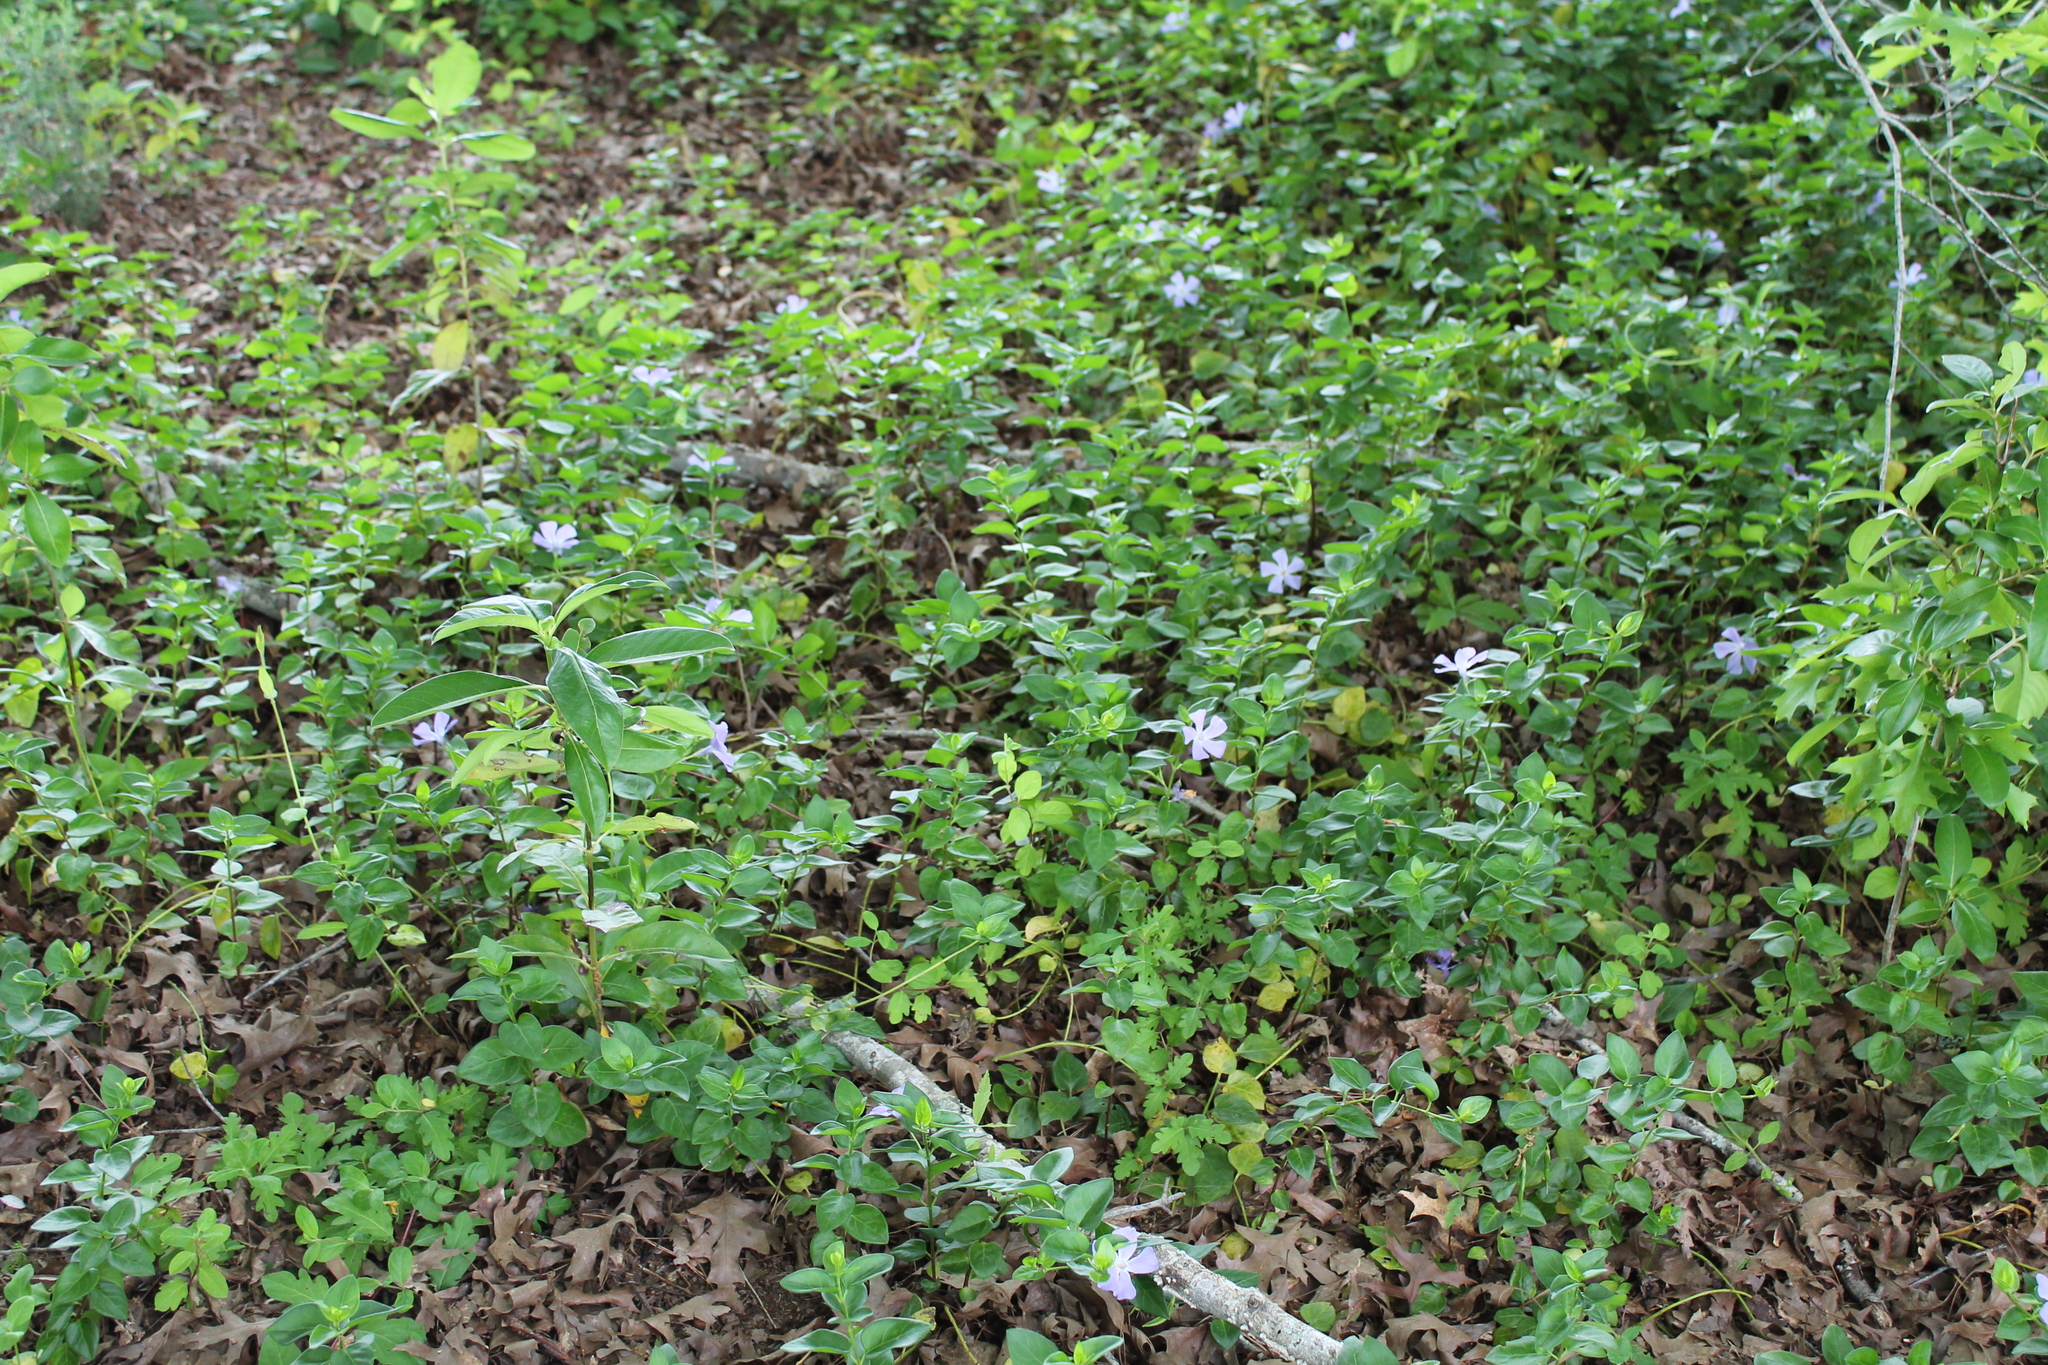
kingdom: Plantae
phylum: Tracheophyta
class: Magnoliopsida
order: Gentianales
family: Apocynaceae
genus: Vinca
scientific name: Vinca major
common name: Greater periwinkle
